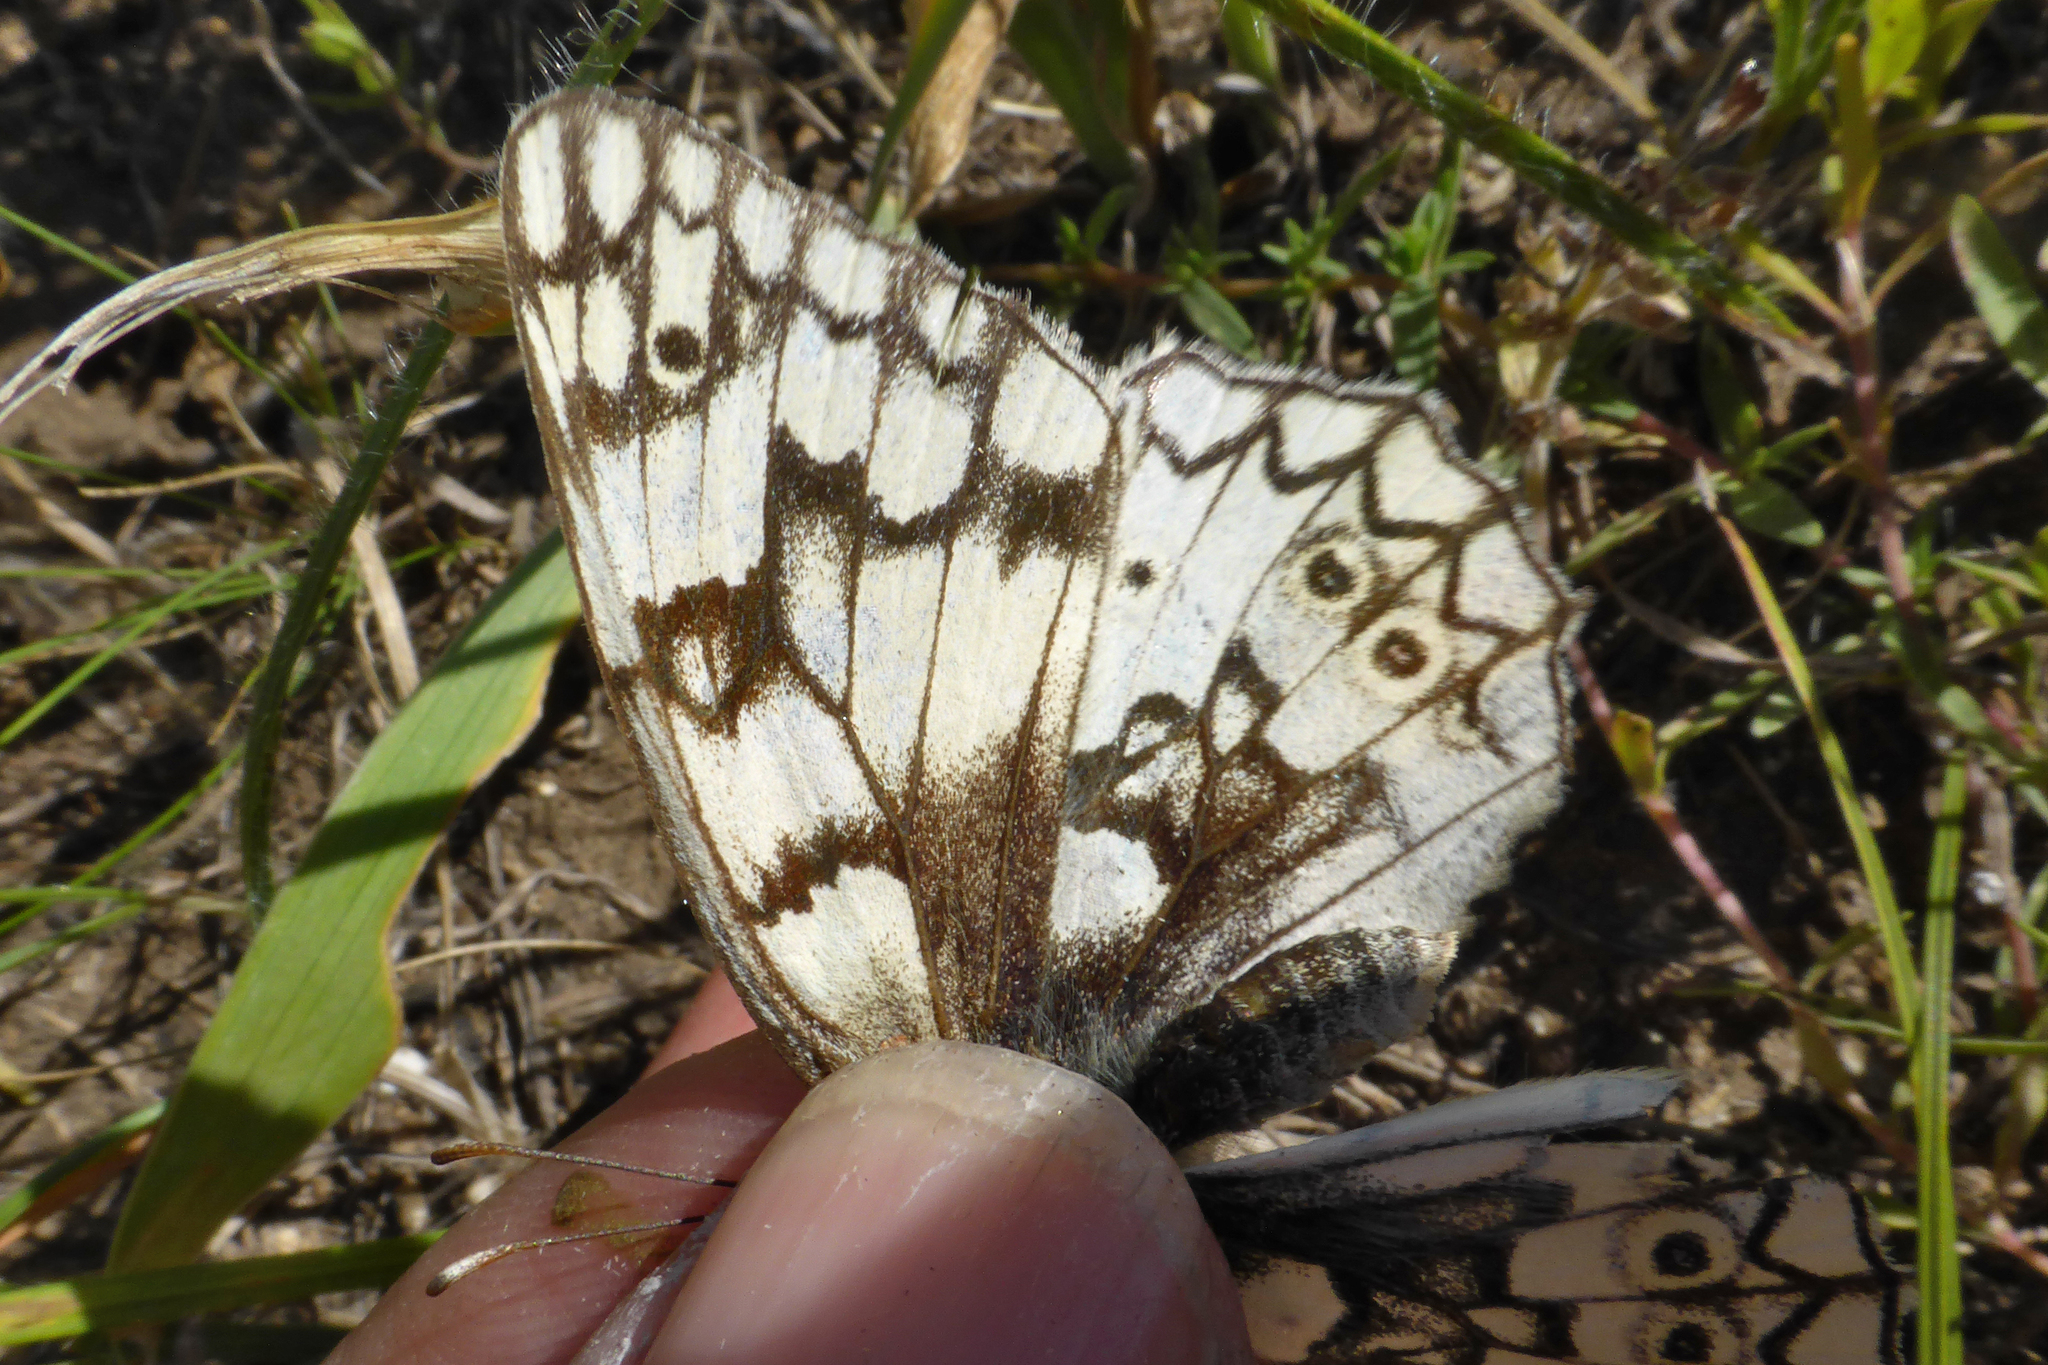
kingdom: Animalia
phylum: Arthropoda
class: Insecta
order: Lepidoptera
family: Nymphalidae
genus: Melanargia
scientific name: Melanargia japygia
